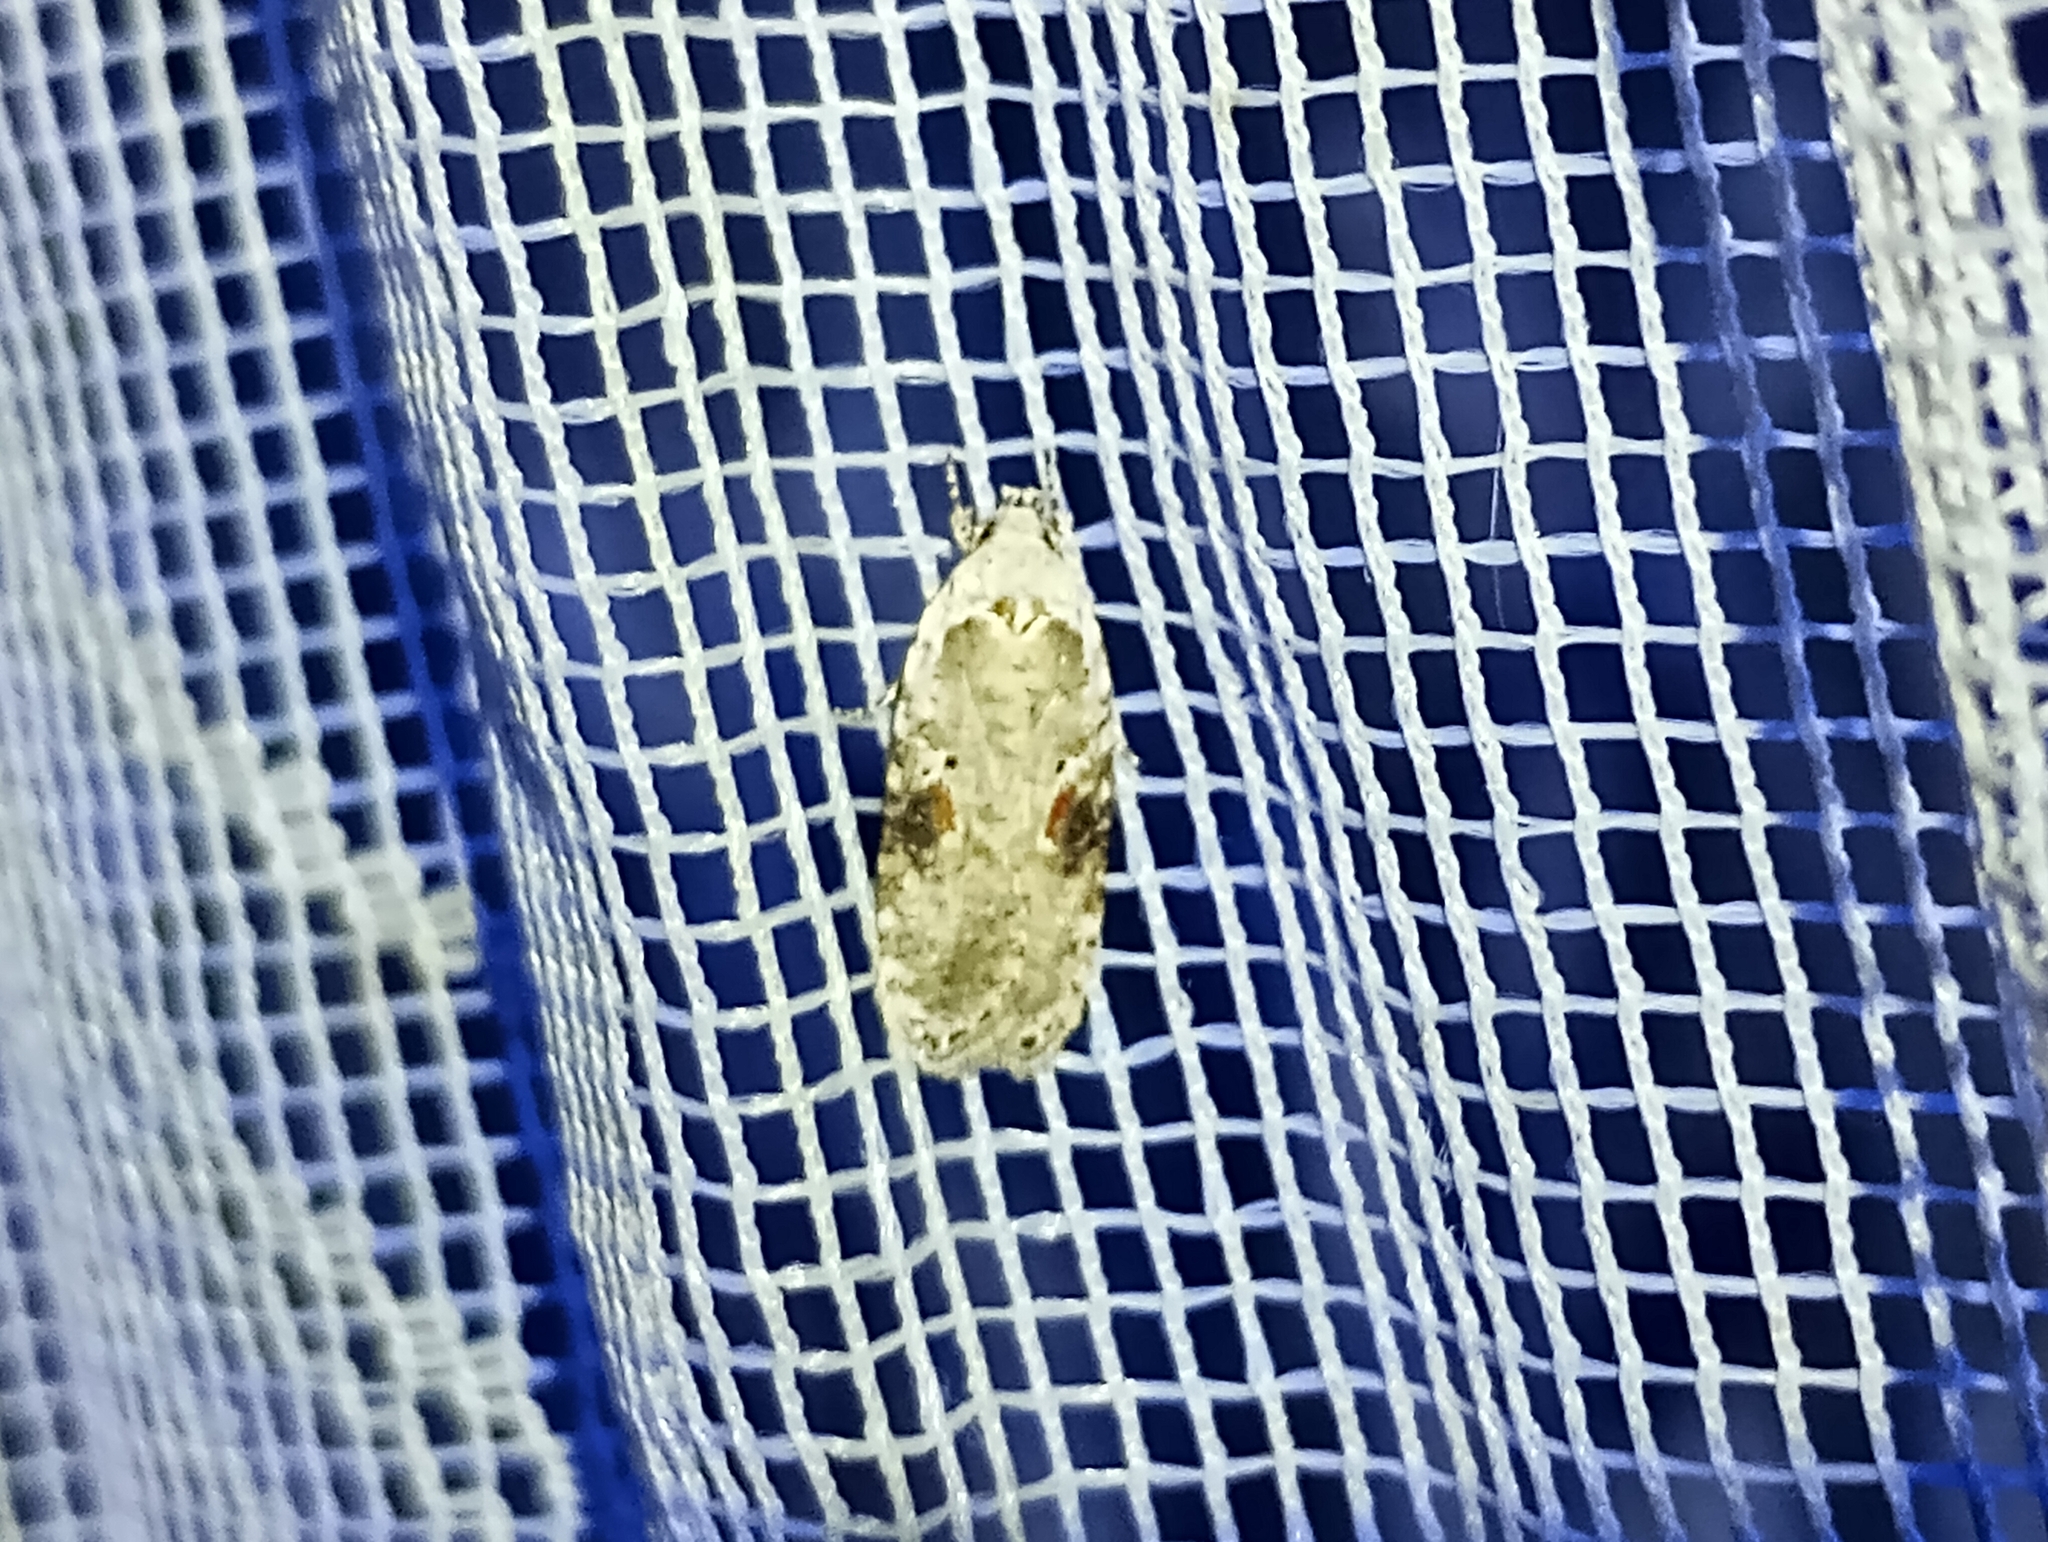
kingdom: Animalia
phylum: Arthropoda
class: Insecta
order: Lepidoptera
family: Depressariidae
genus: Agonopterix
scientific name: Agonopterix alstroemeriana
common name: Moth
